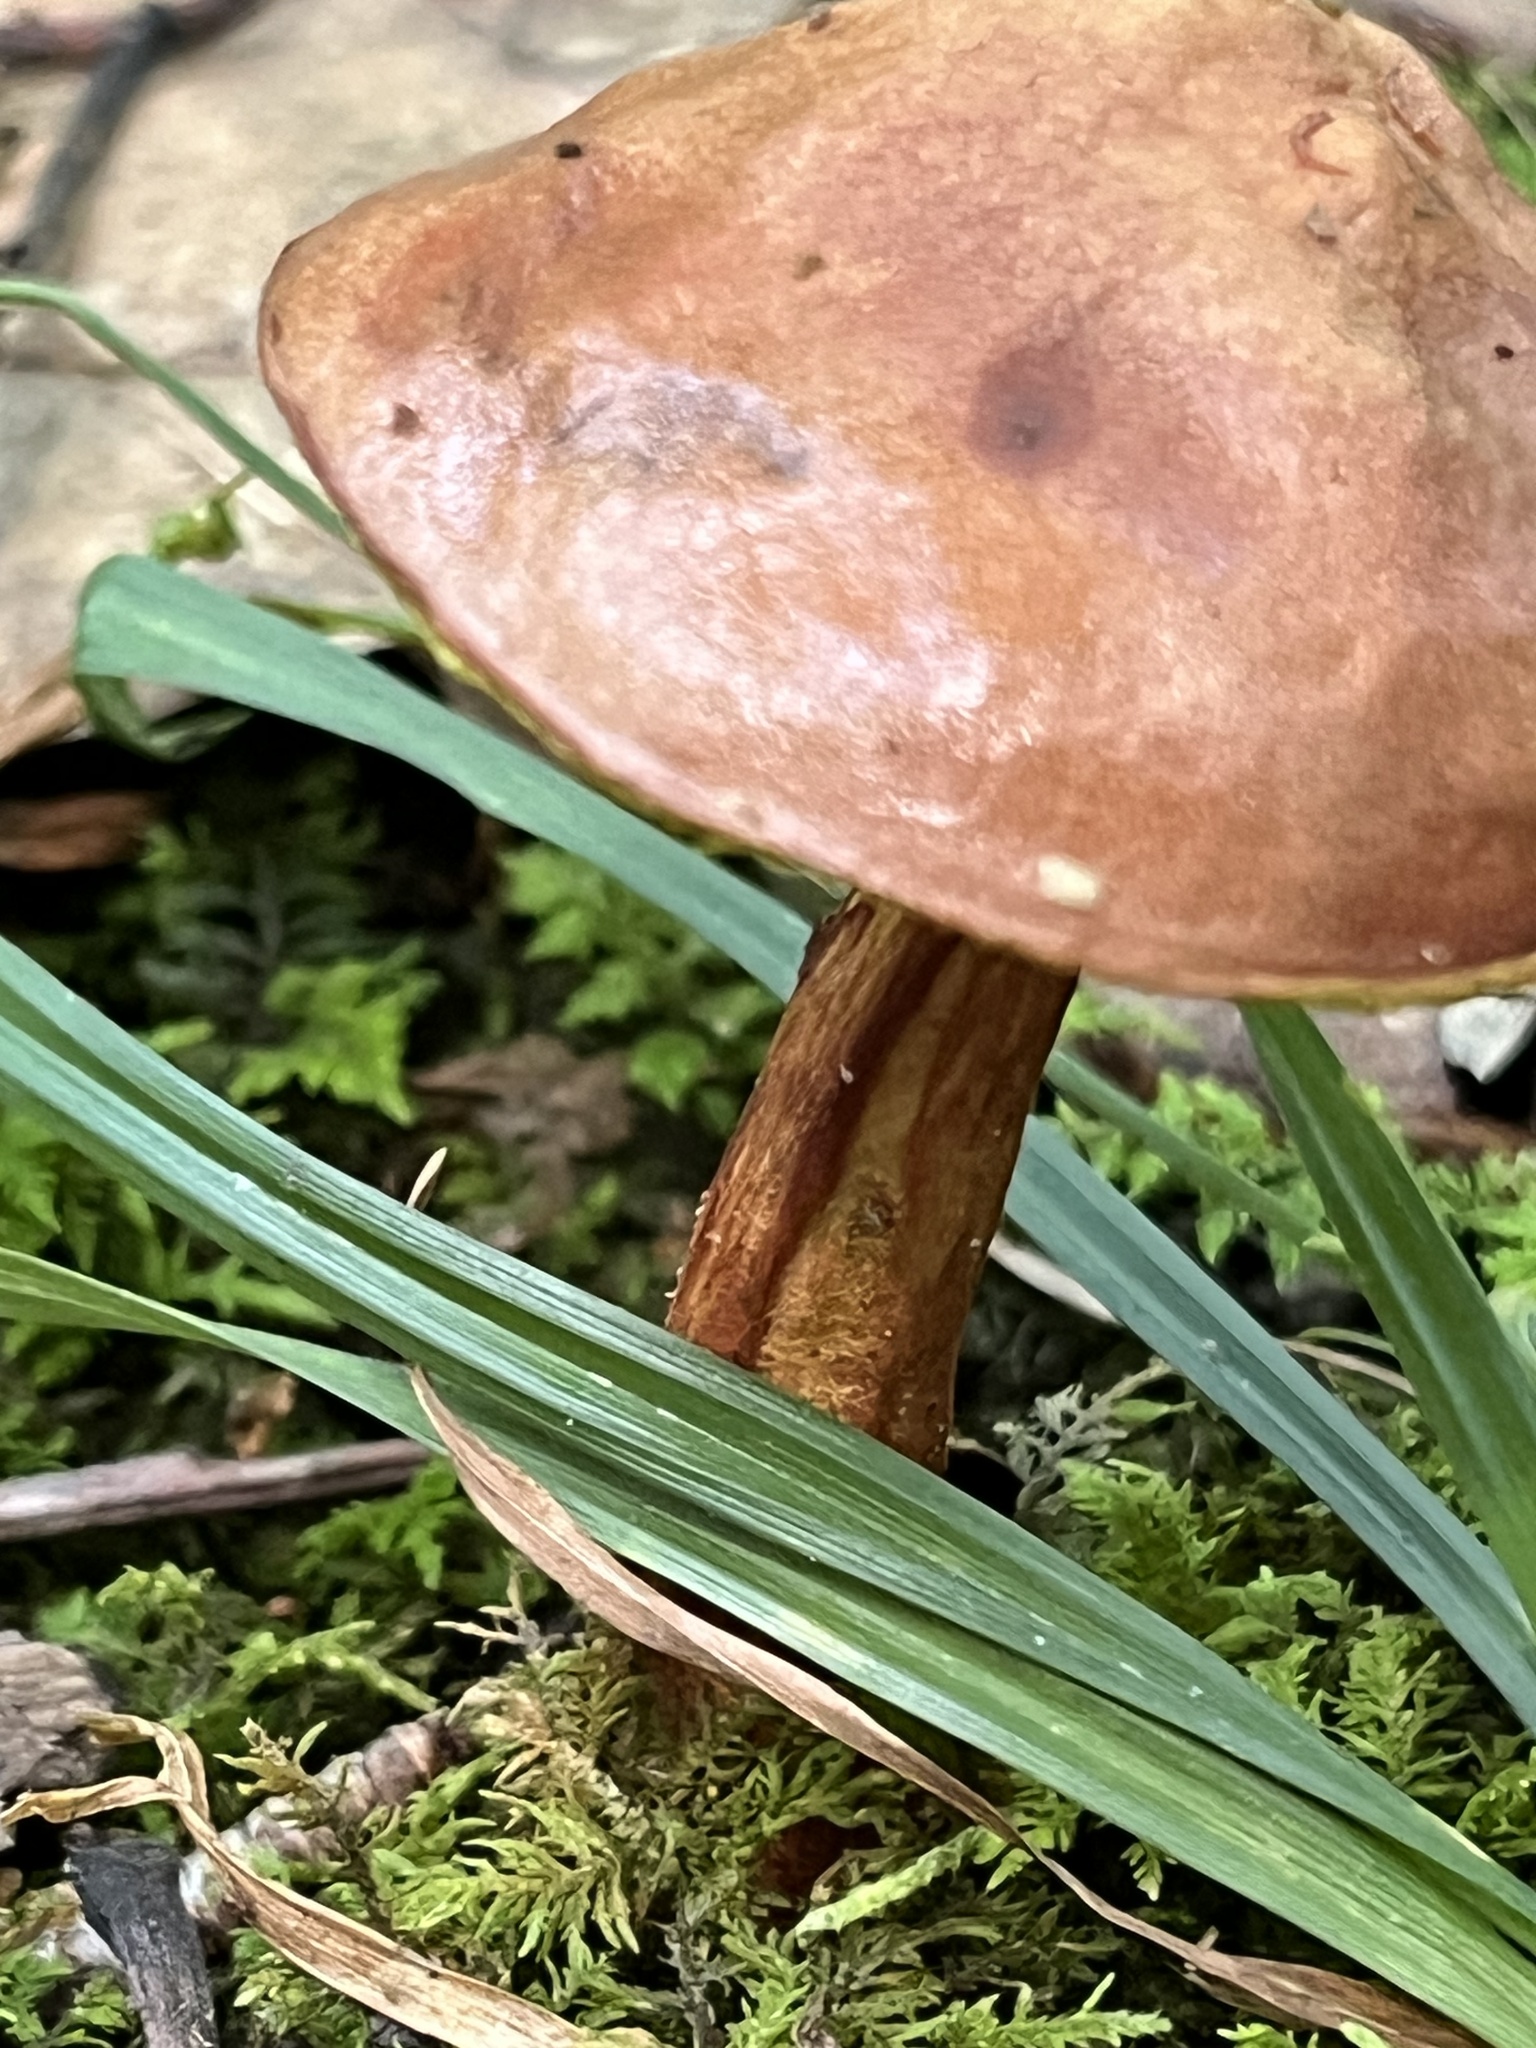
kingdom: Fungi
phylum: Basidiomycota
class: Agaricomycetes
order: Boletales
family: Boletaceae
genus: Aureoboletus
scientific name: Aureoboletus auriporus
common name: Sour gold-pored bolete
